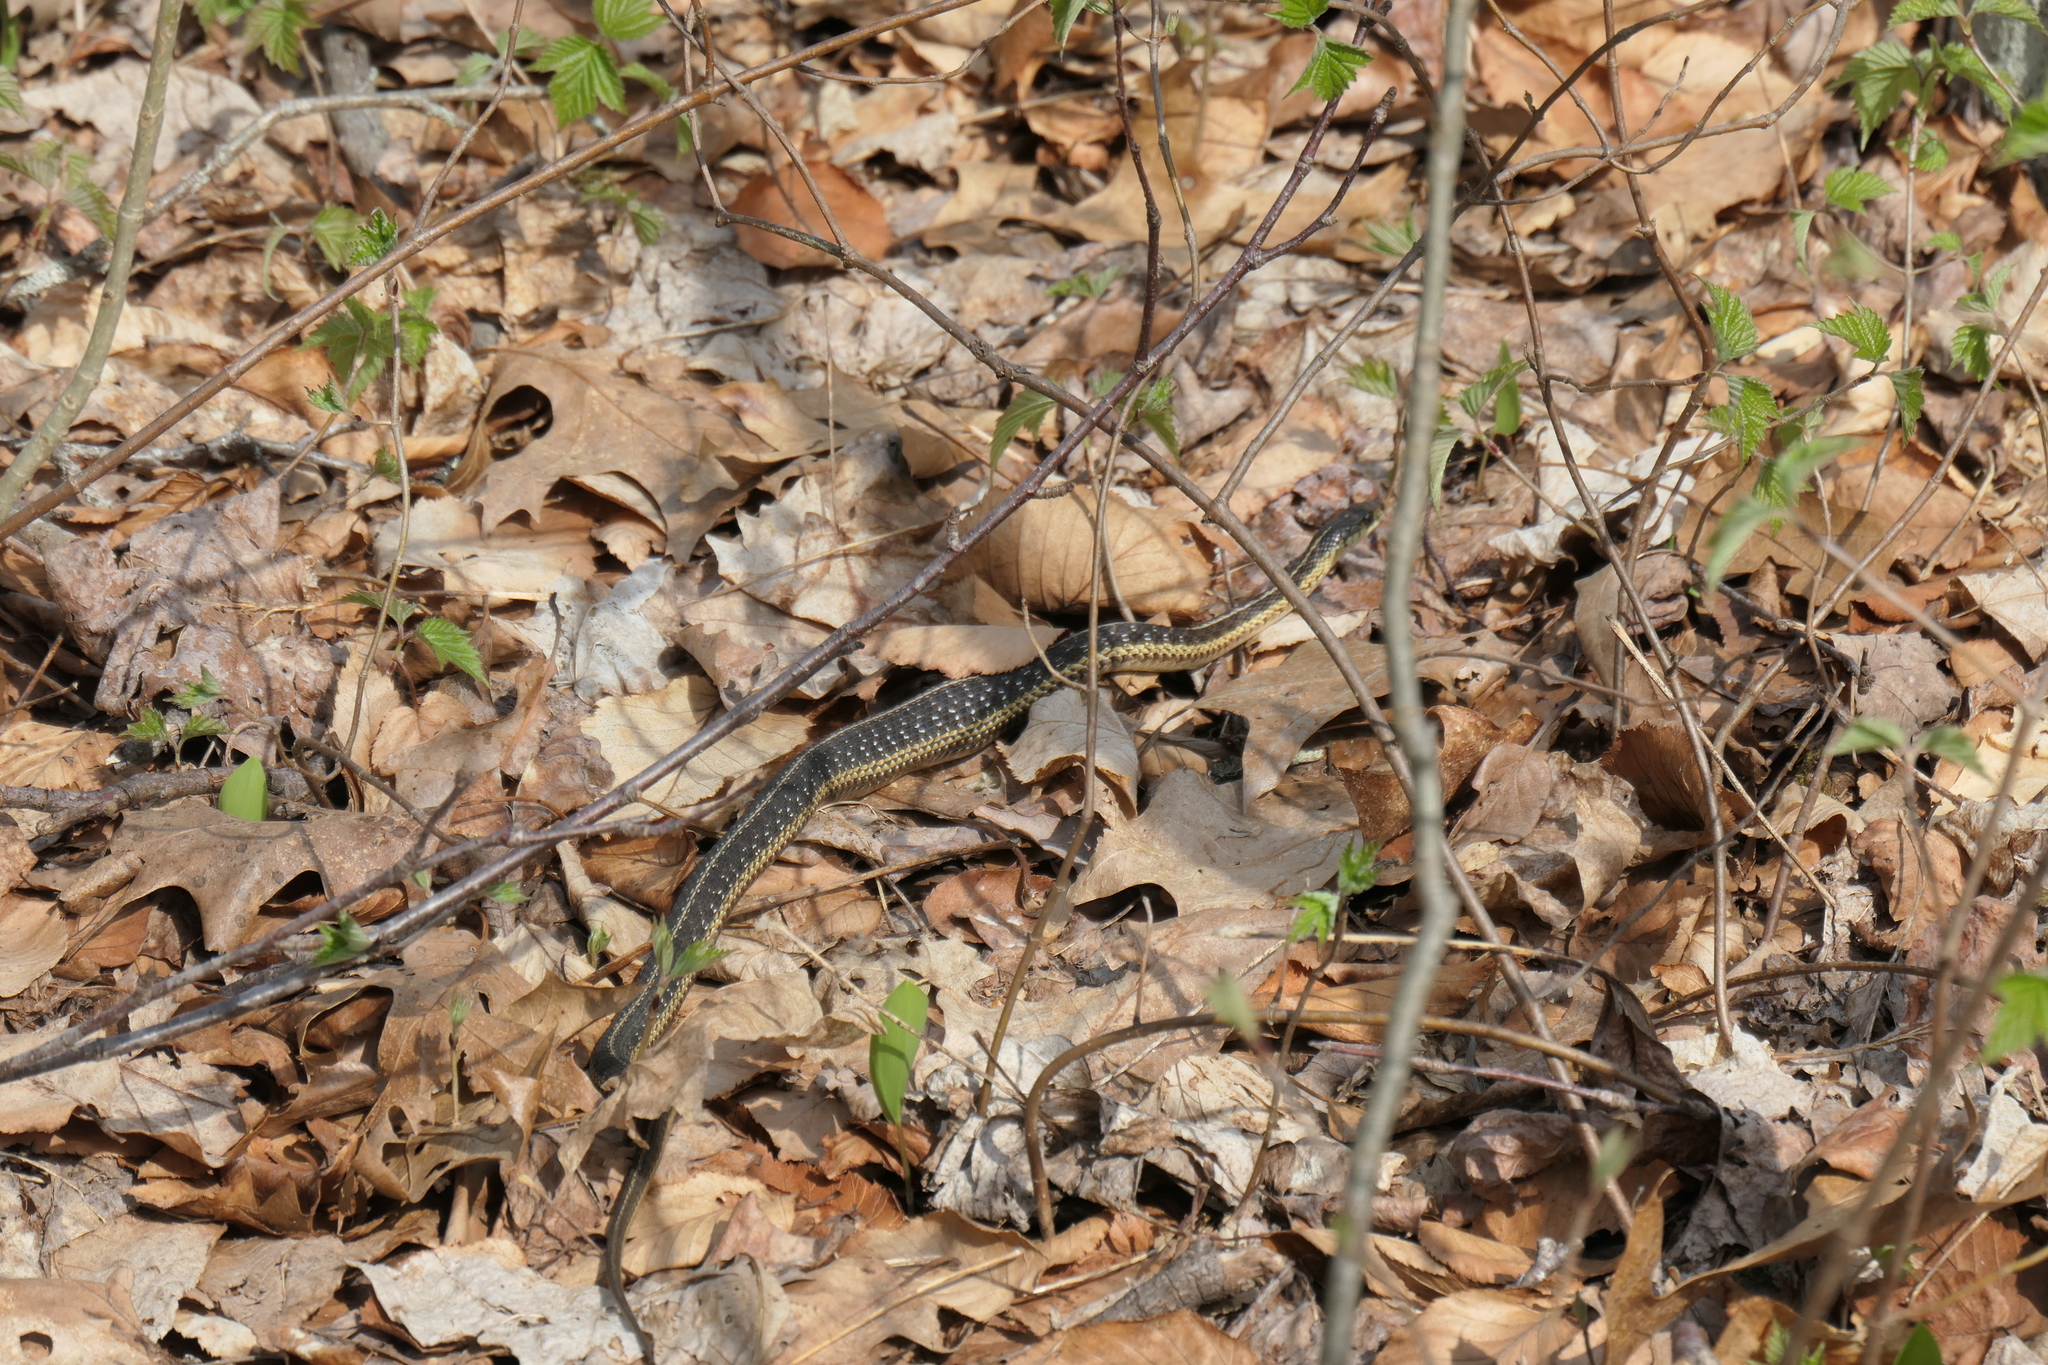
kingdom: Animalia
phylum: Chordata
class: Squamata
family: Colubridae
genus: Thamnophis
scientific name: Thamnophis sirtalis
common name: Common garter snake
